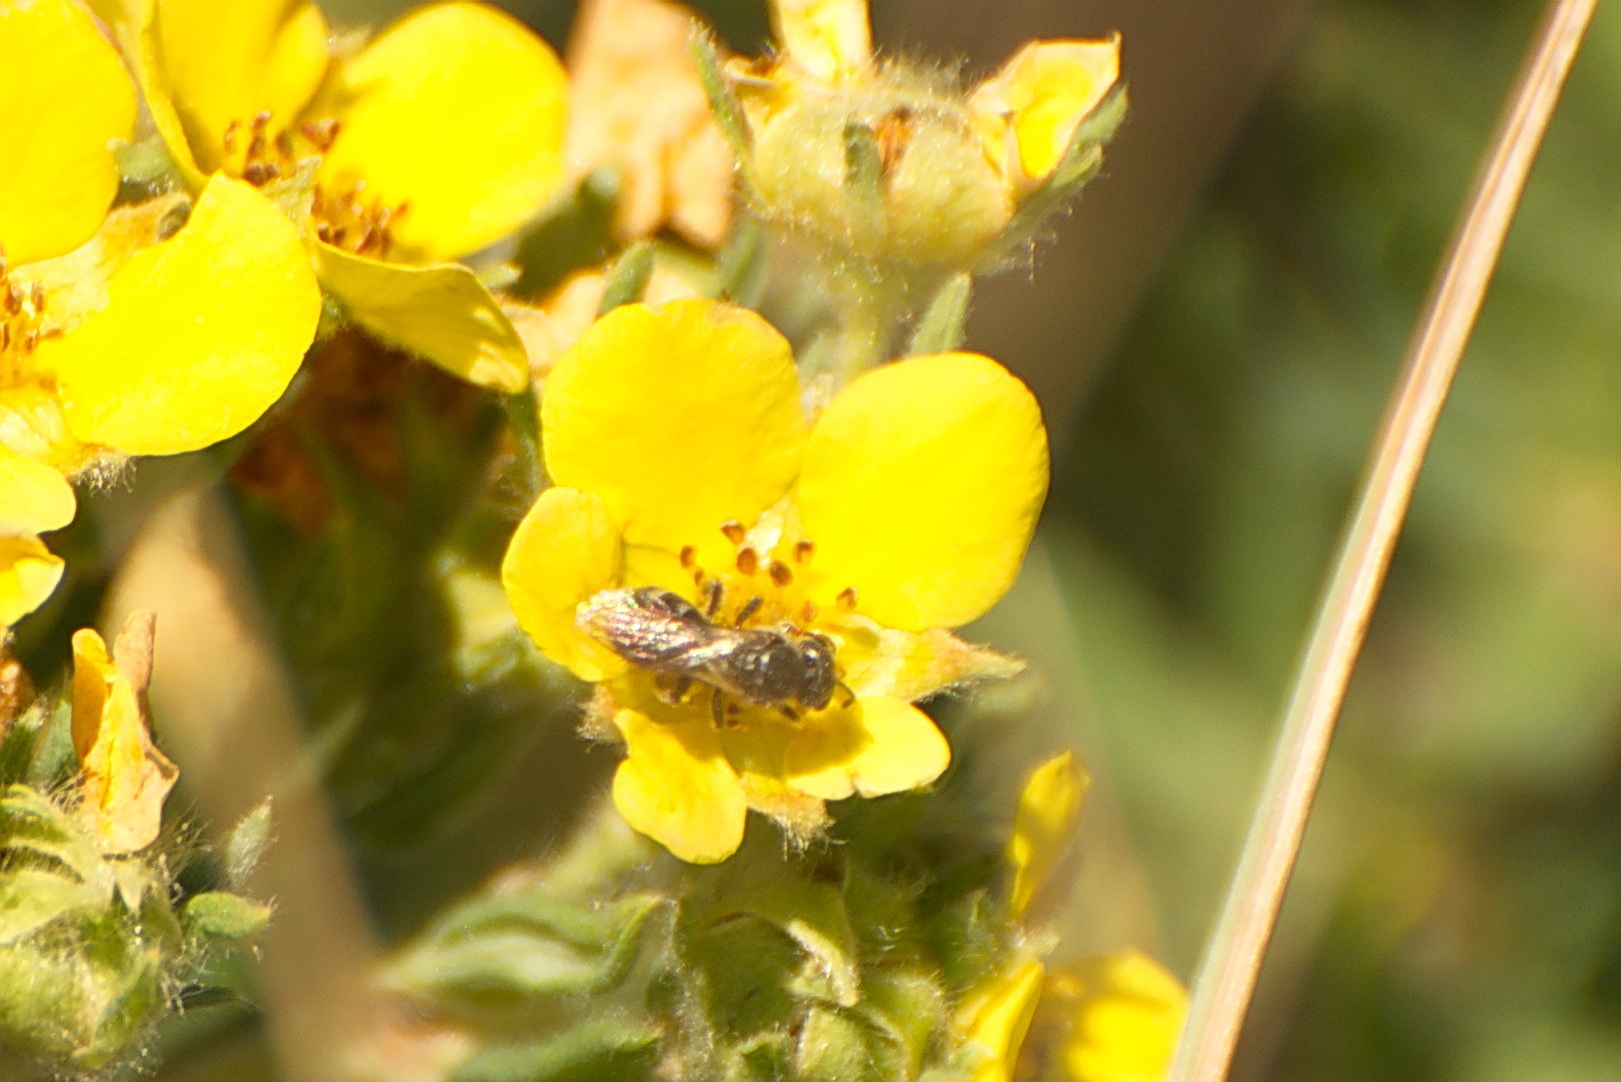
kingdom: Animalia
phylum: Arthropoda
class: Insecta
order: Hymenoptera
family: Halictidae
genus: Dialictus
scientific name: Dialictus
